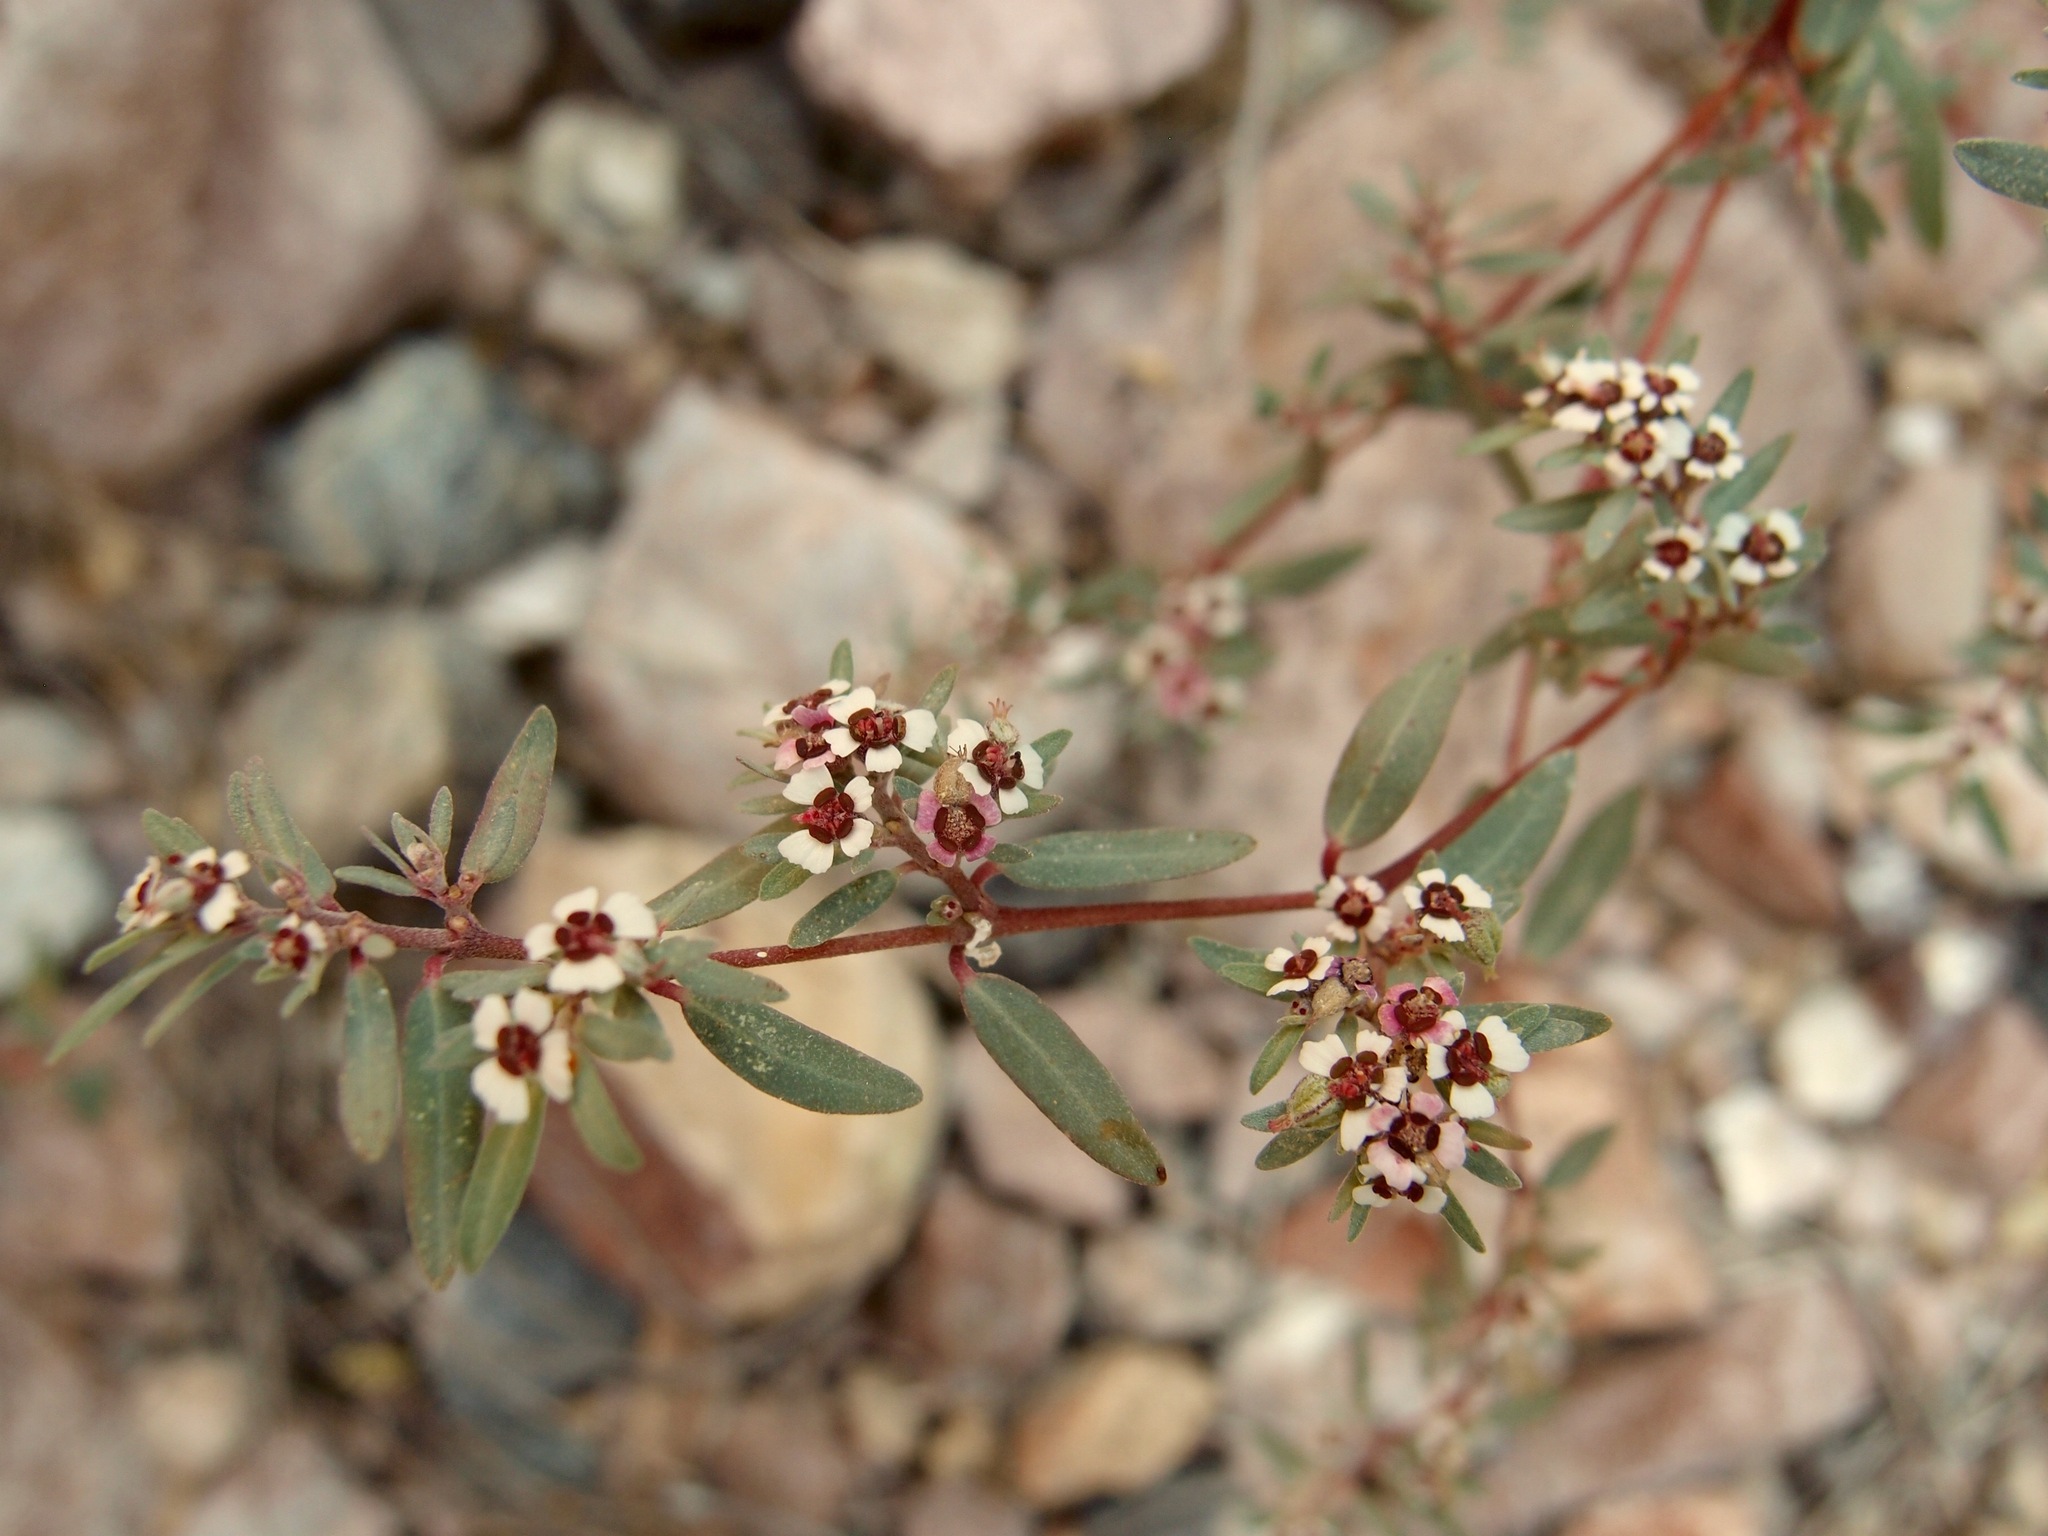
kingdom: Plantae
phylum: Tracheophyta
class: Magnoliopsida
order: Malpighiales
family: Euphorbiaceae
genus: Euphorbia
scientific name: Euphorbia pediculifera
